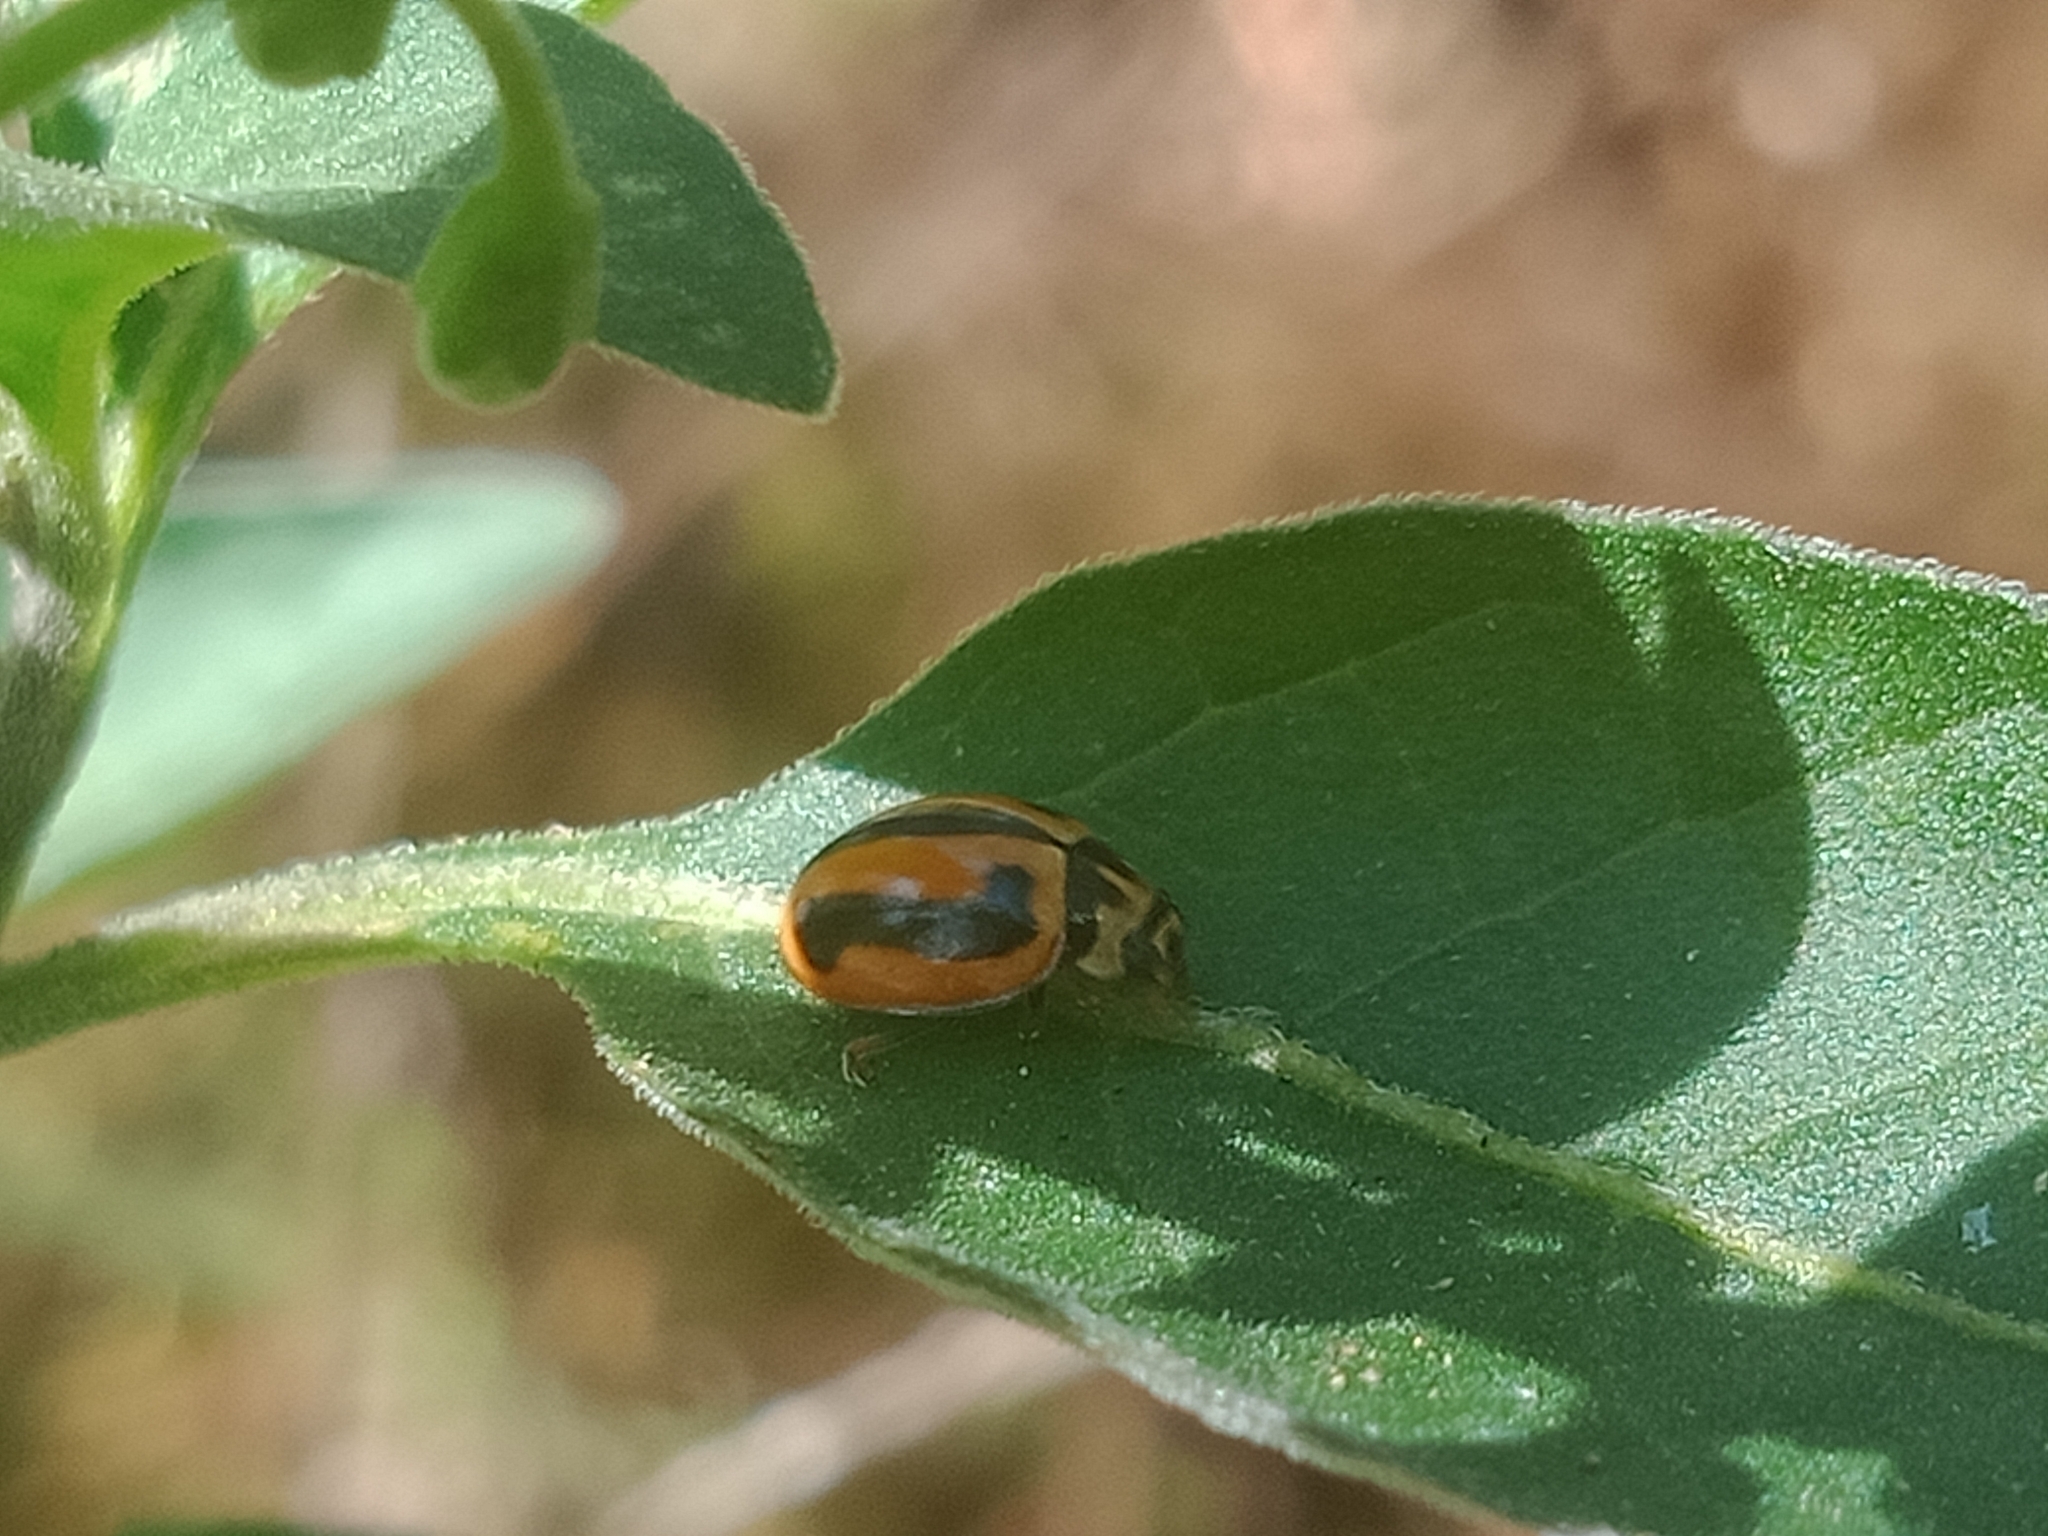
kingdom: Animalia
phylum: Arthropoda
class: Insecta
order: Coleoptera
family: Coccinellidae
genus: Micraspis
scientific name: Micraspis frenata
